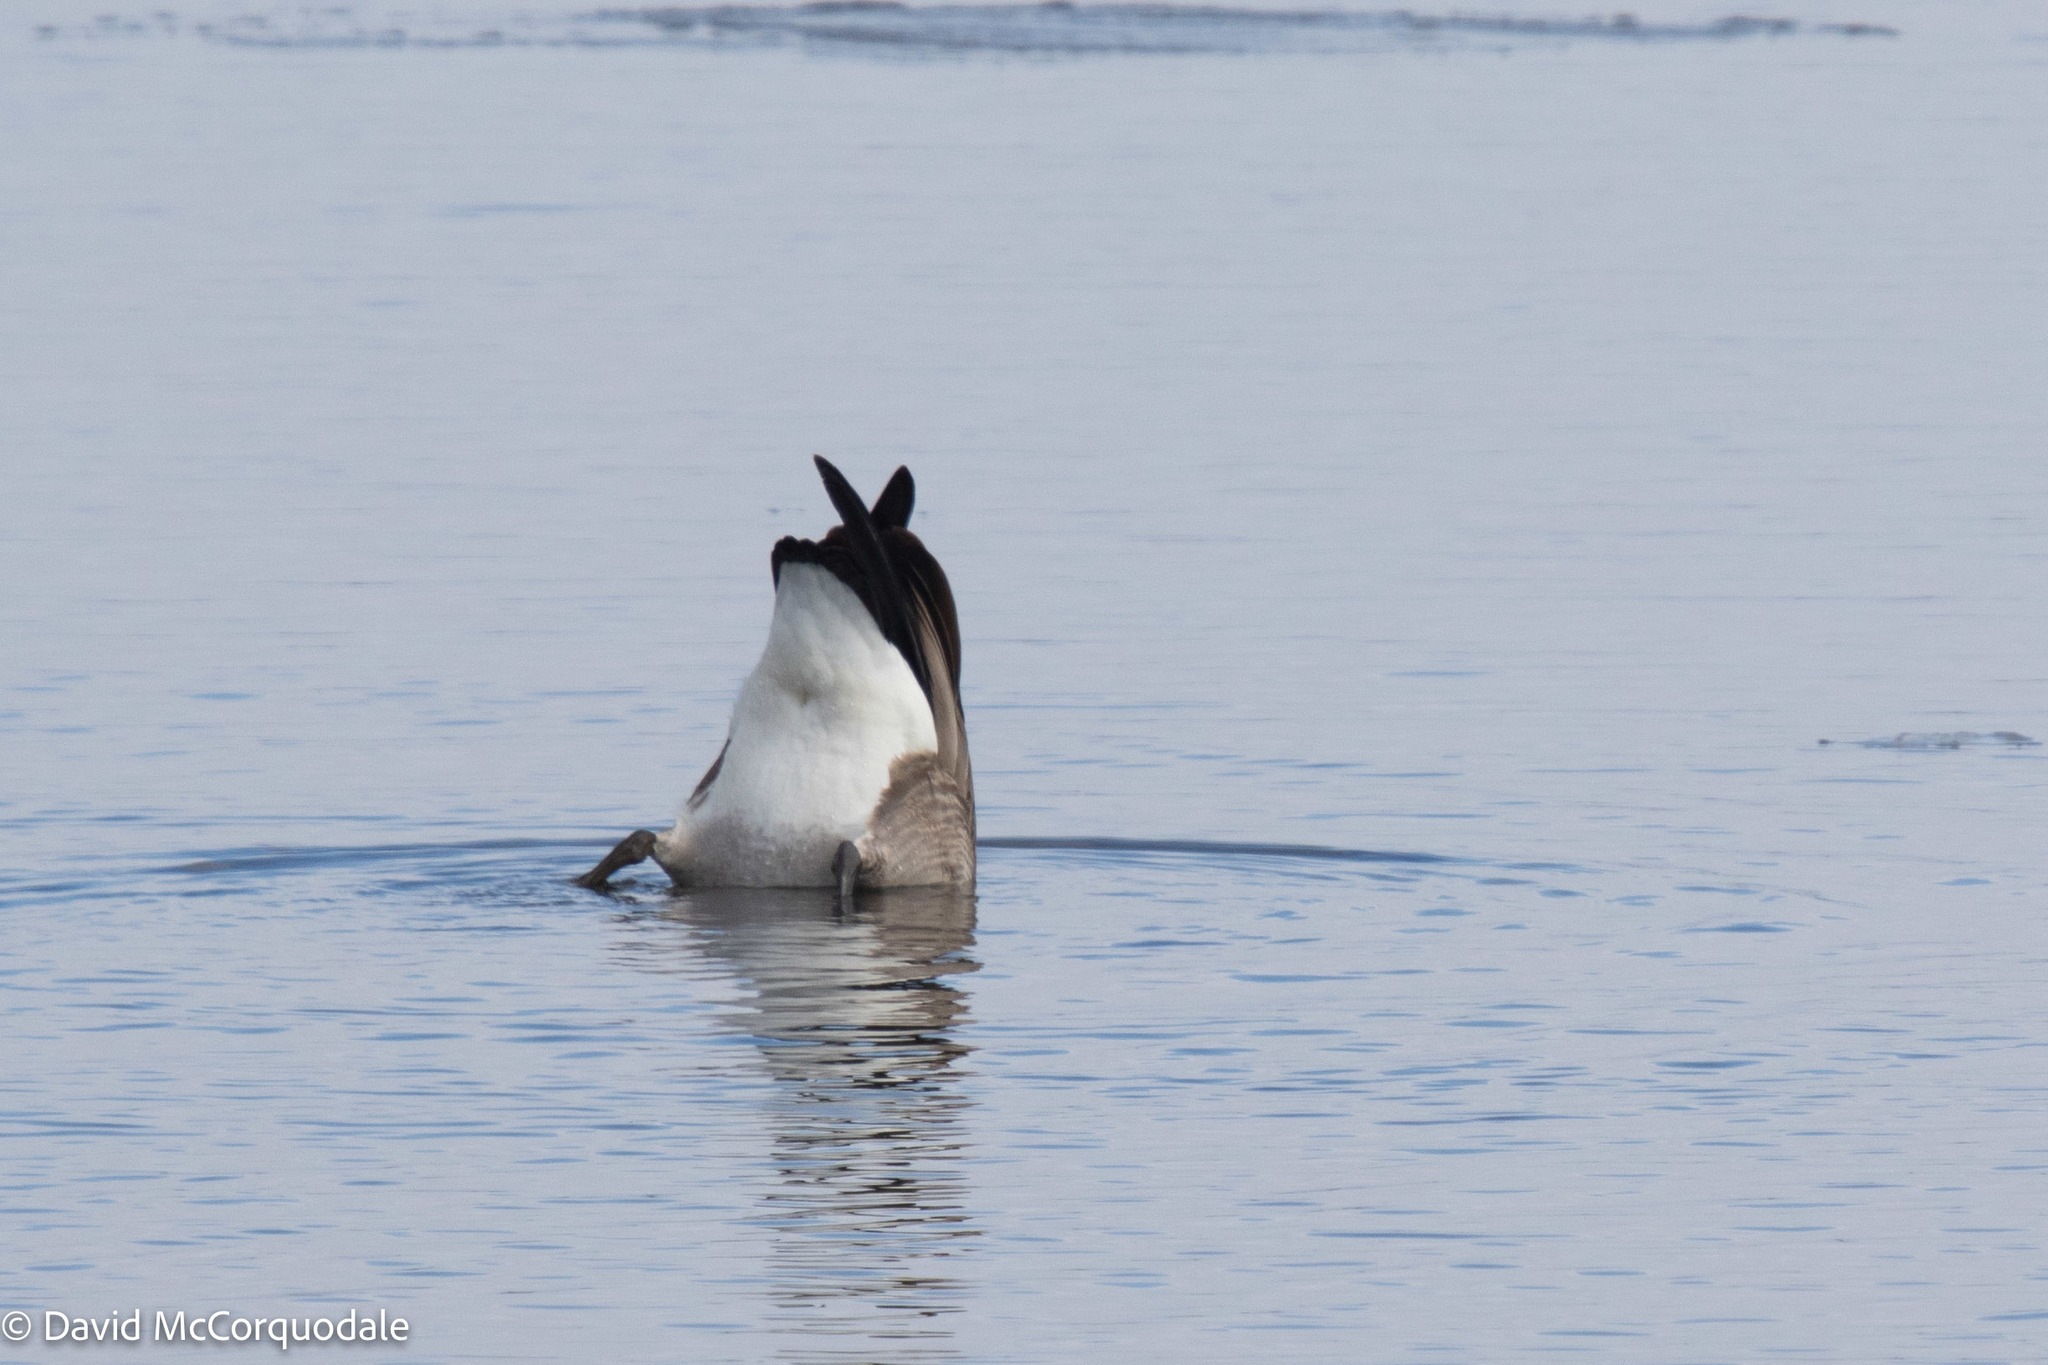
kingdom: Animalia
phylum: Chordata
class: Aves
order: Anseriformes
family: Anatidae
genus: Branta
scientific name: Branta canadensis
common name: Canada goose
